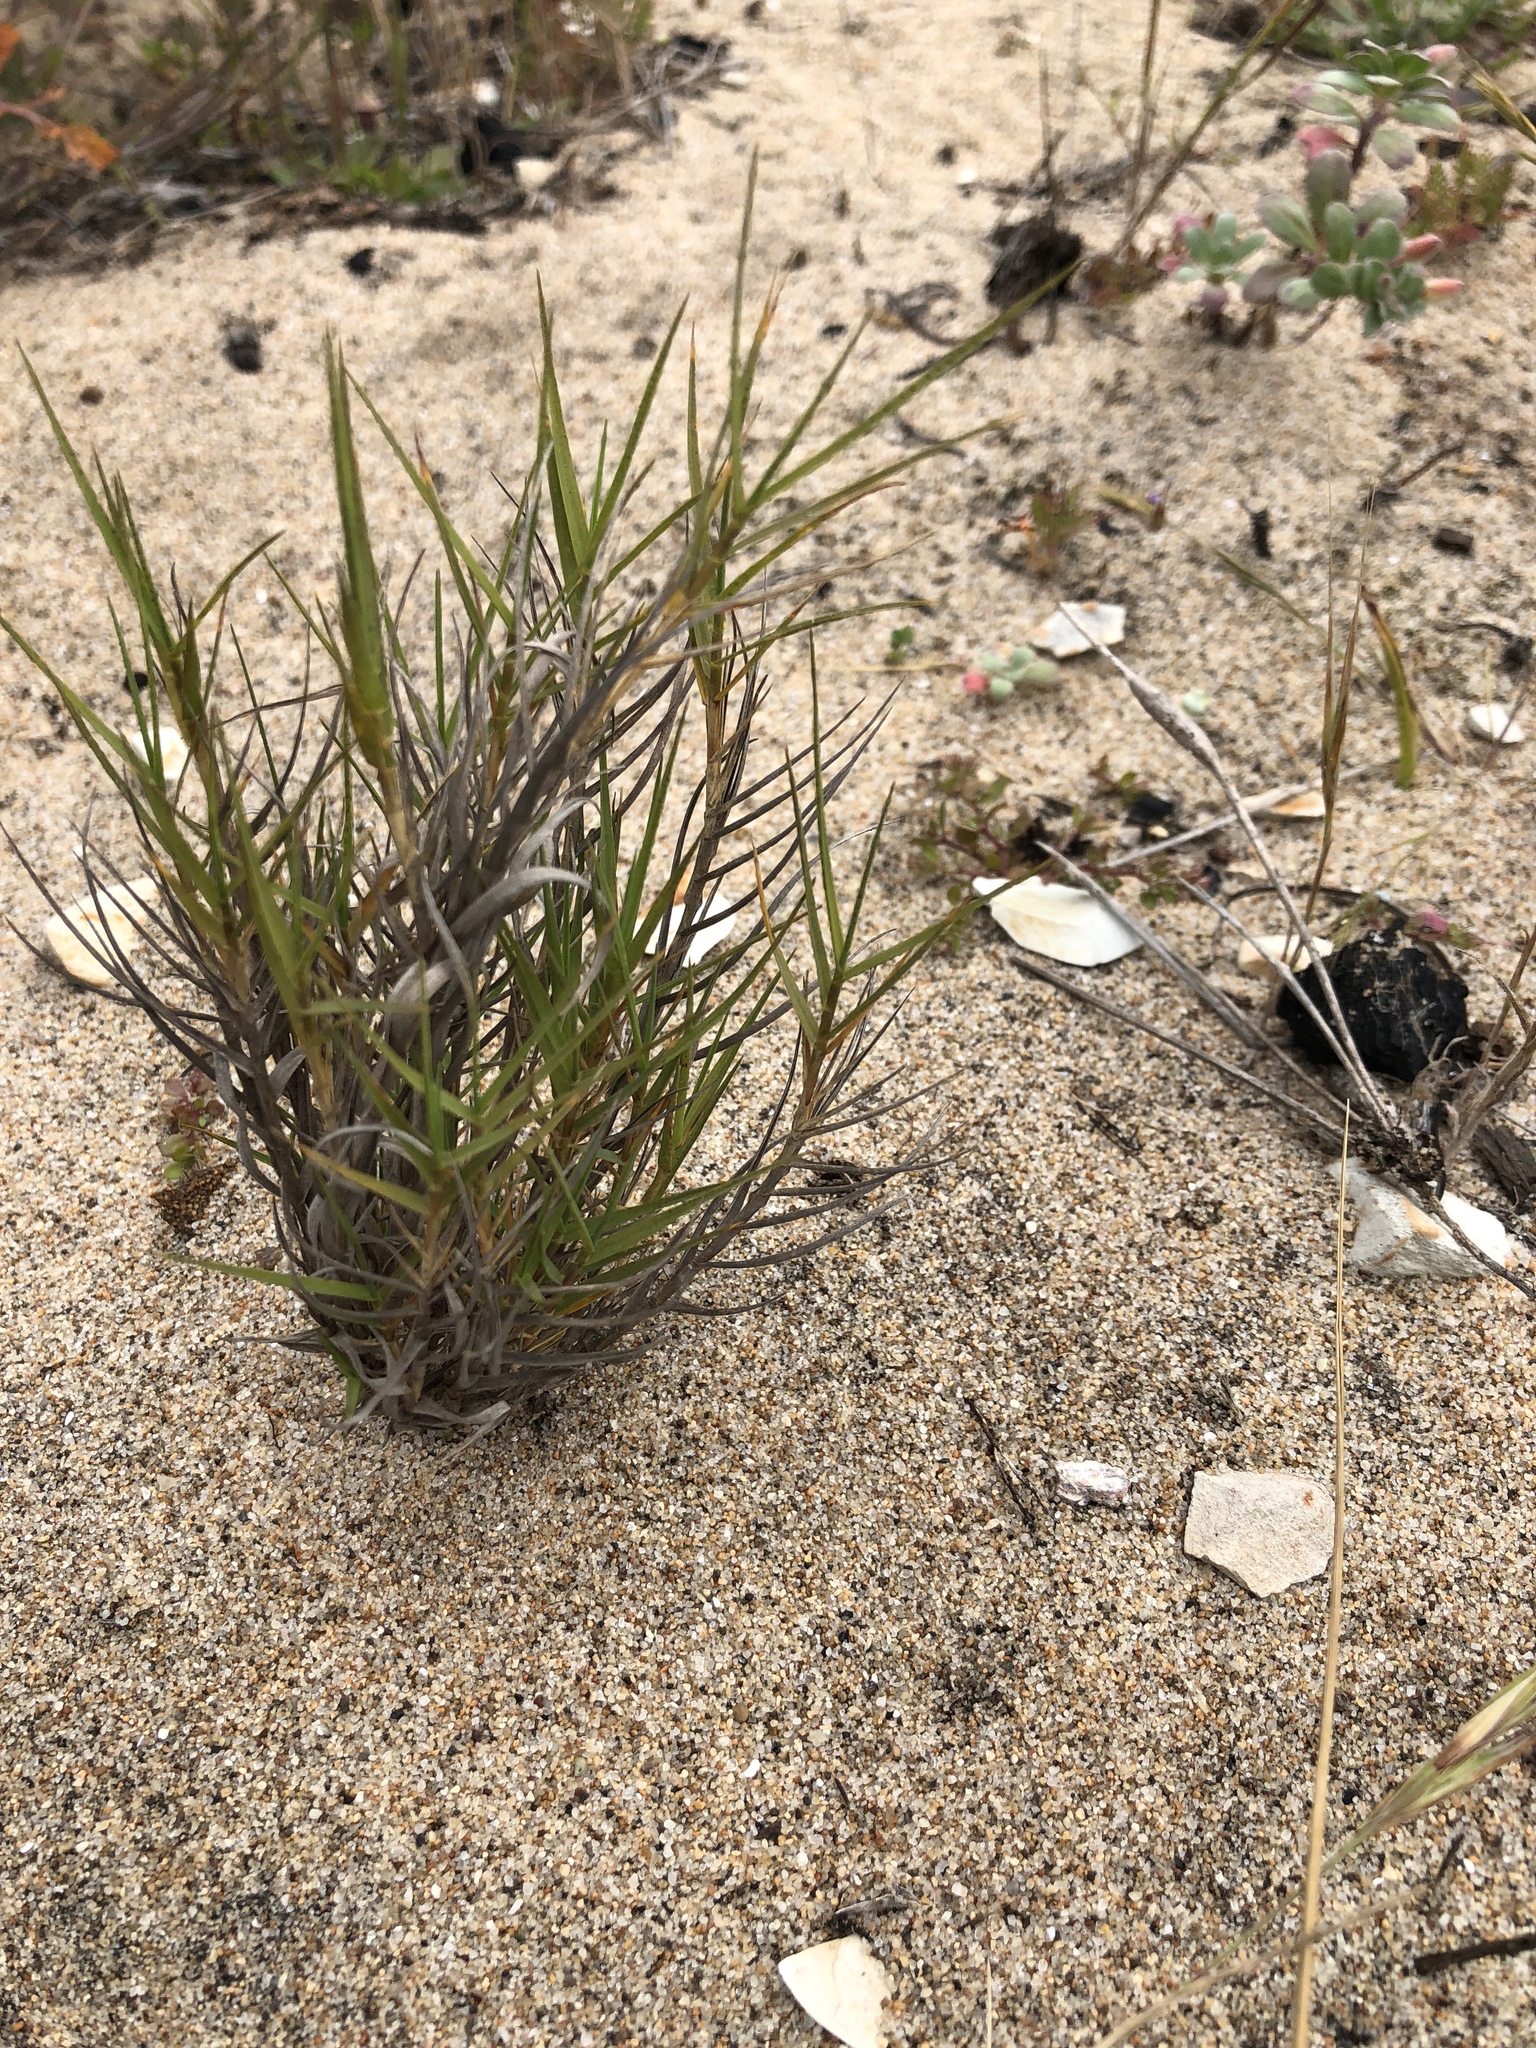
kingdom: Plantae
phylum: Tracheophyta
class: Liliopsida
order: Poales
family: Poaceae
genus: Distichlis
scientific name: Distichlis spicata
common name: Saltgrass
